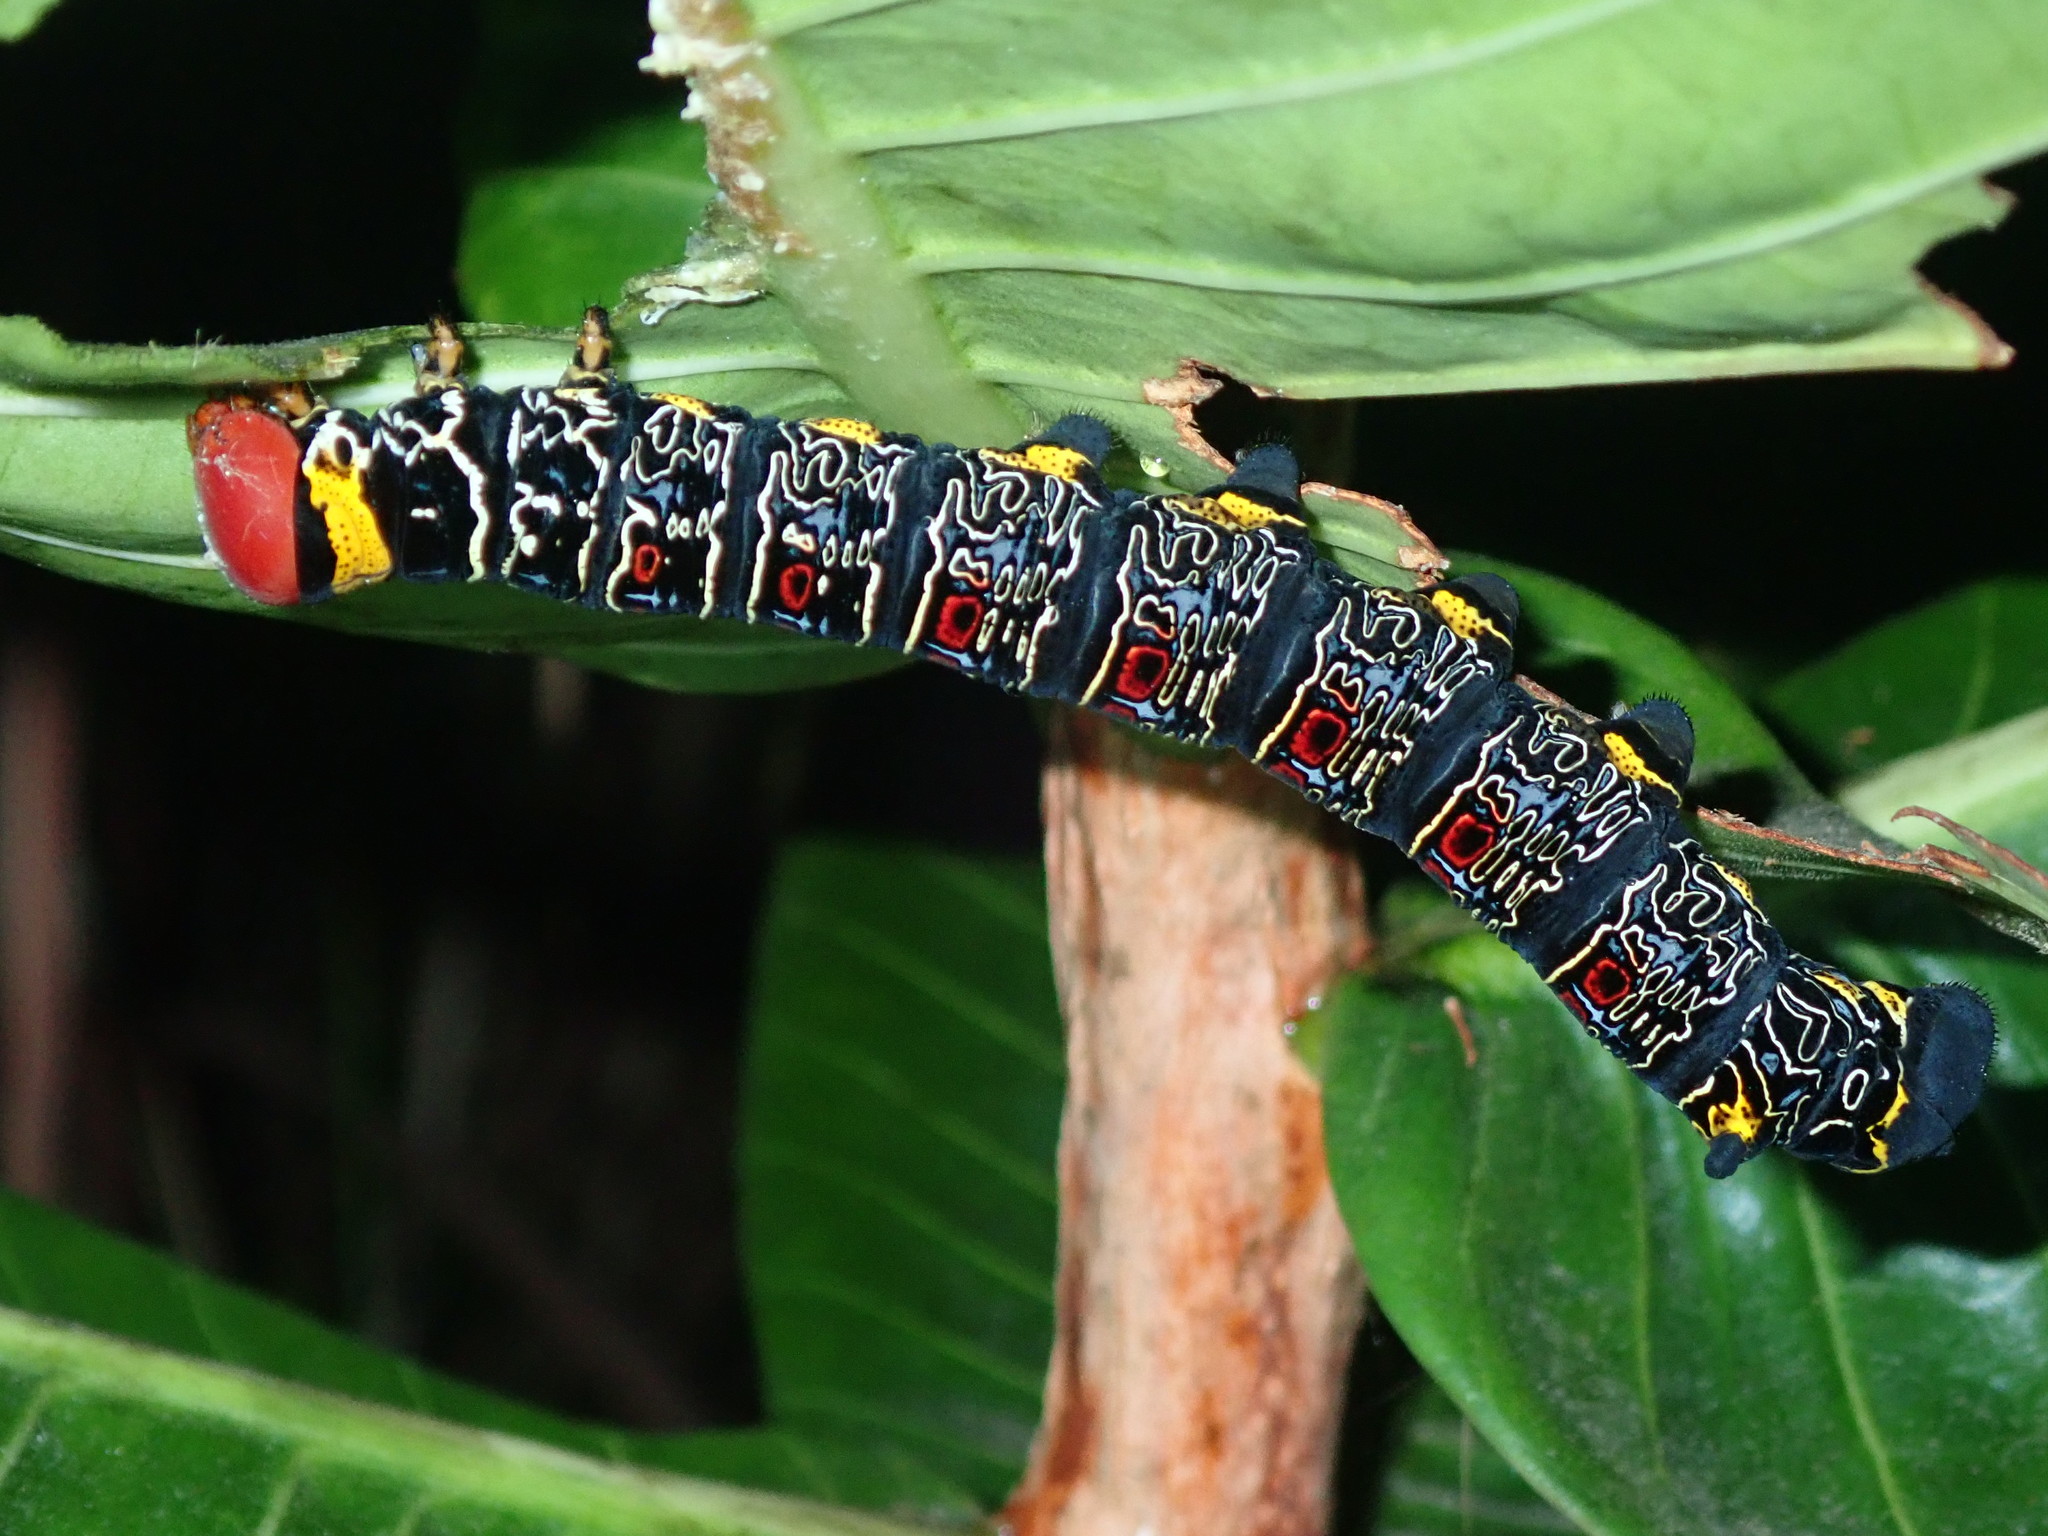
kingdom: Animalia
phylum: Arthropoda
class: Insecta
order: Lepidoptera
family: Sphingidae
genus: Isognathus
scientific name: Isognathus caricae
